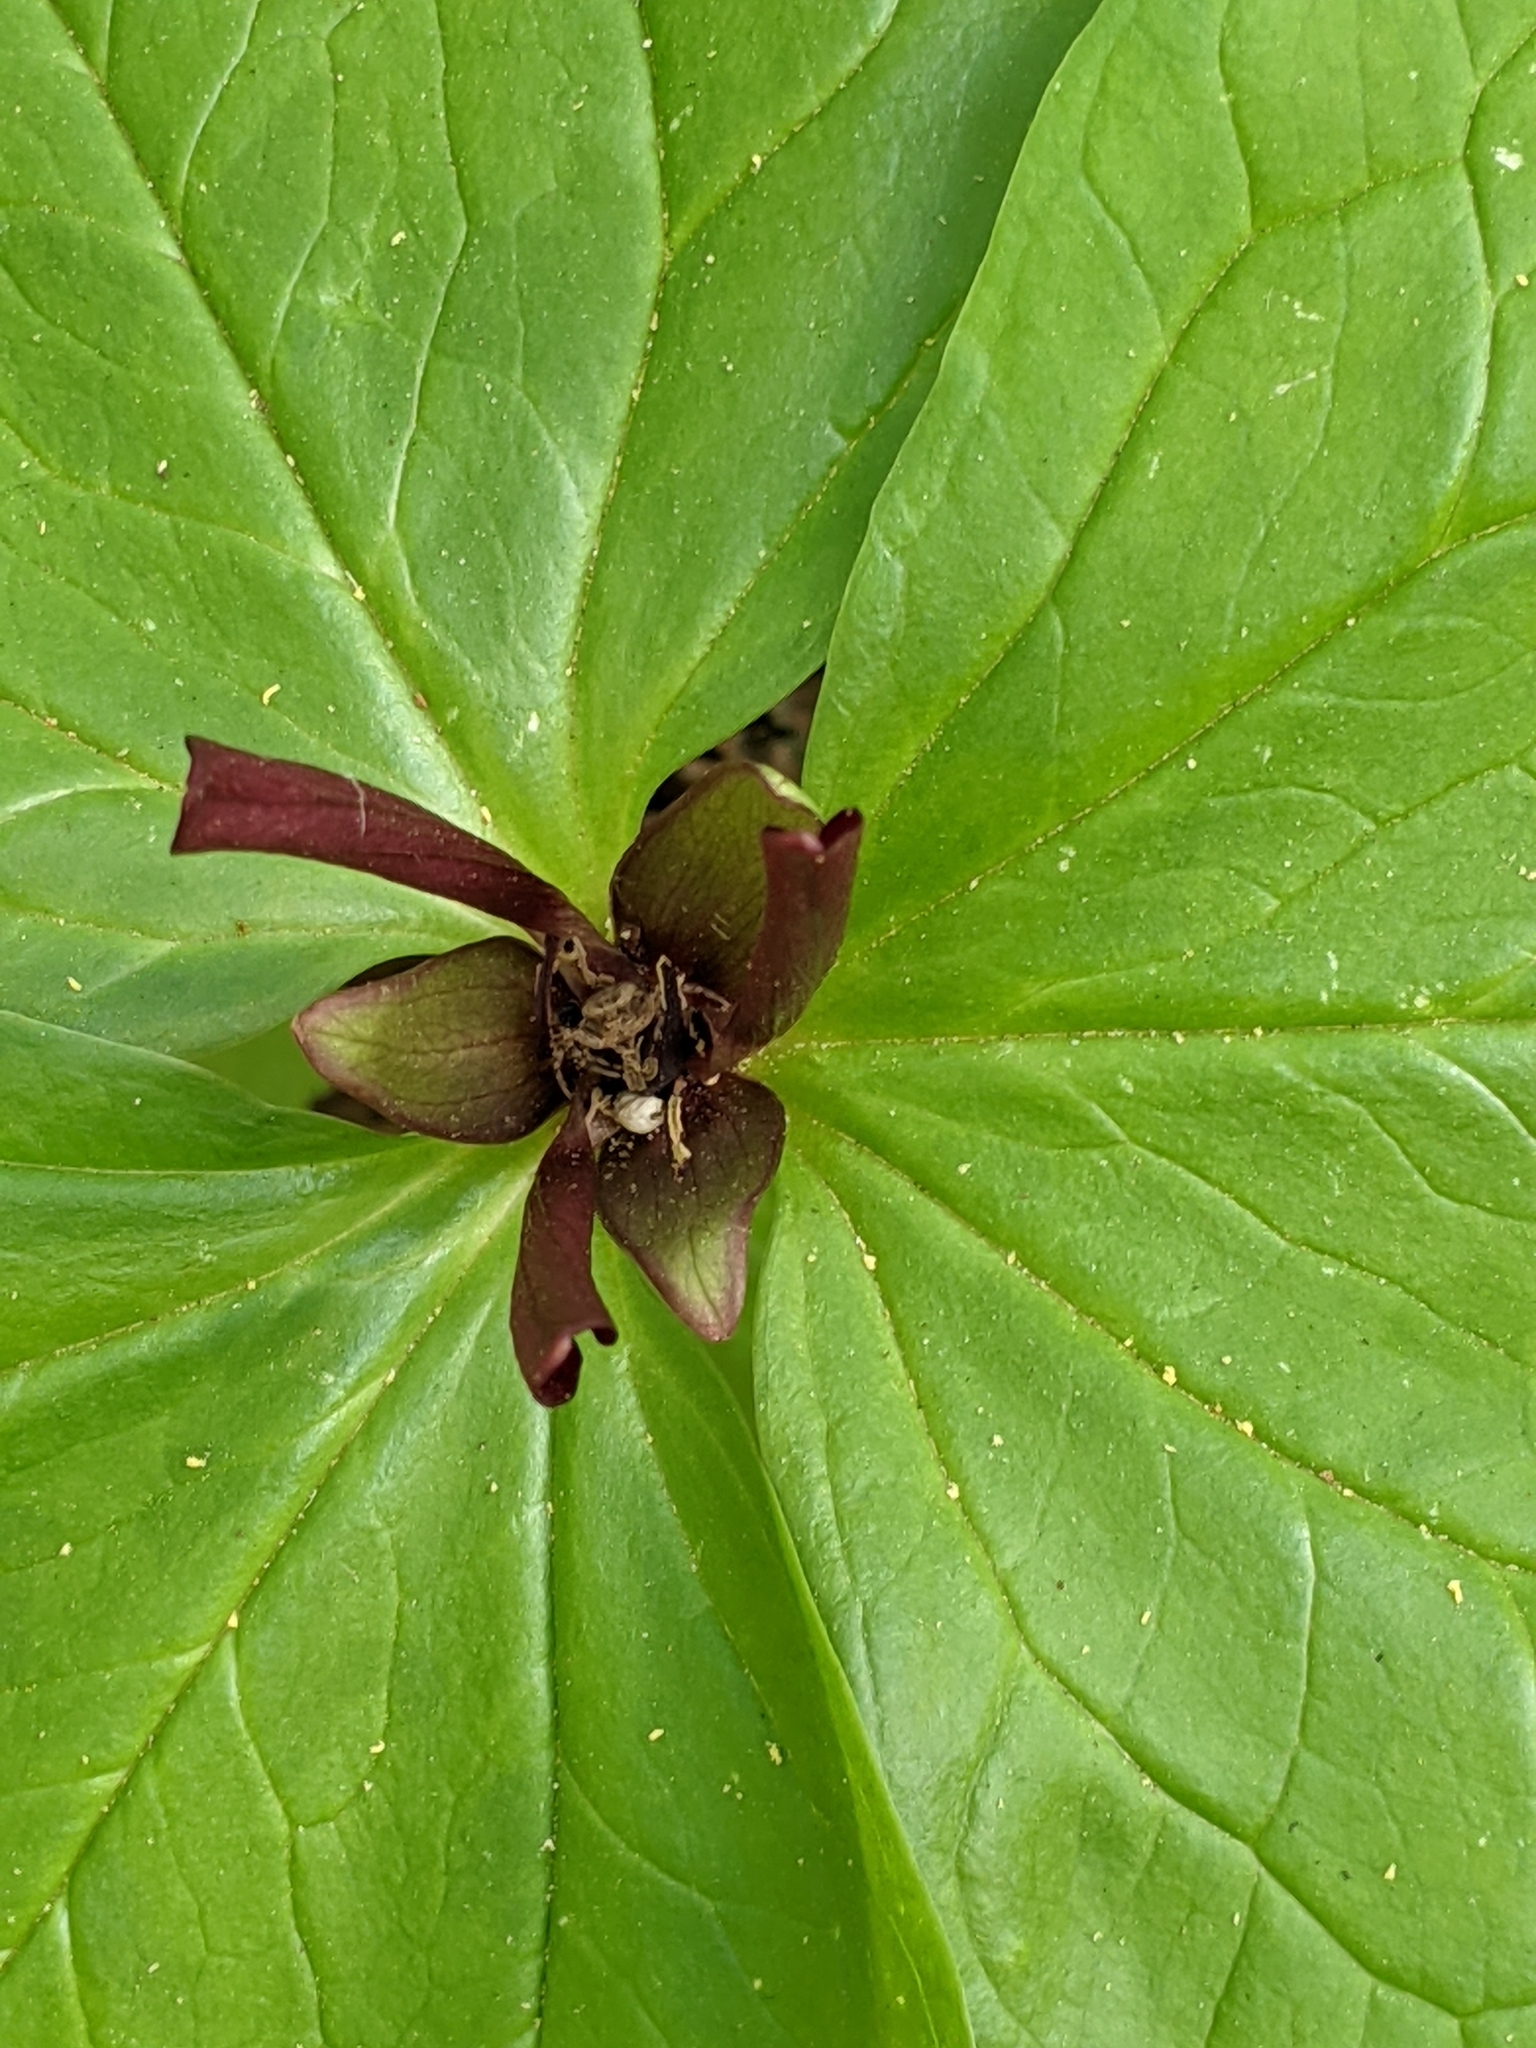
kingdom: Plantae
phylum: Tracheophyta
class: Liliopsida
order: Liliales
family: Melanthiaceae
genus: Trillium
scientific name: Trillium chloropetalum
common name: Giant trillium
